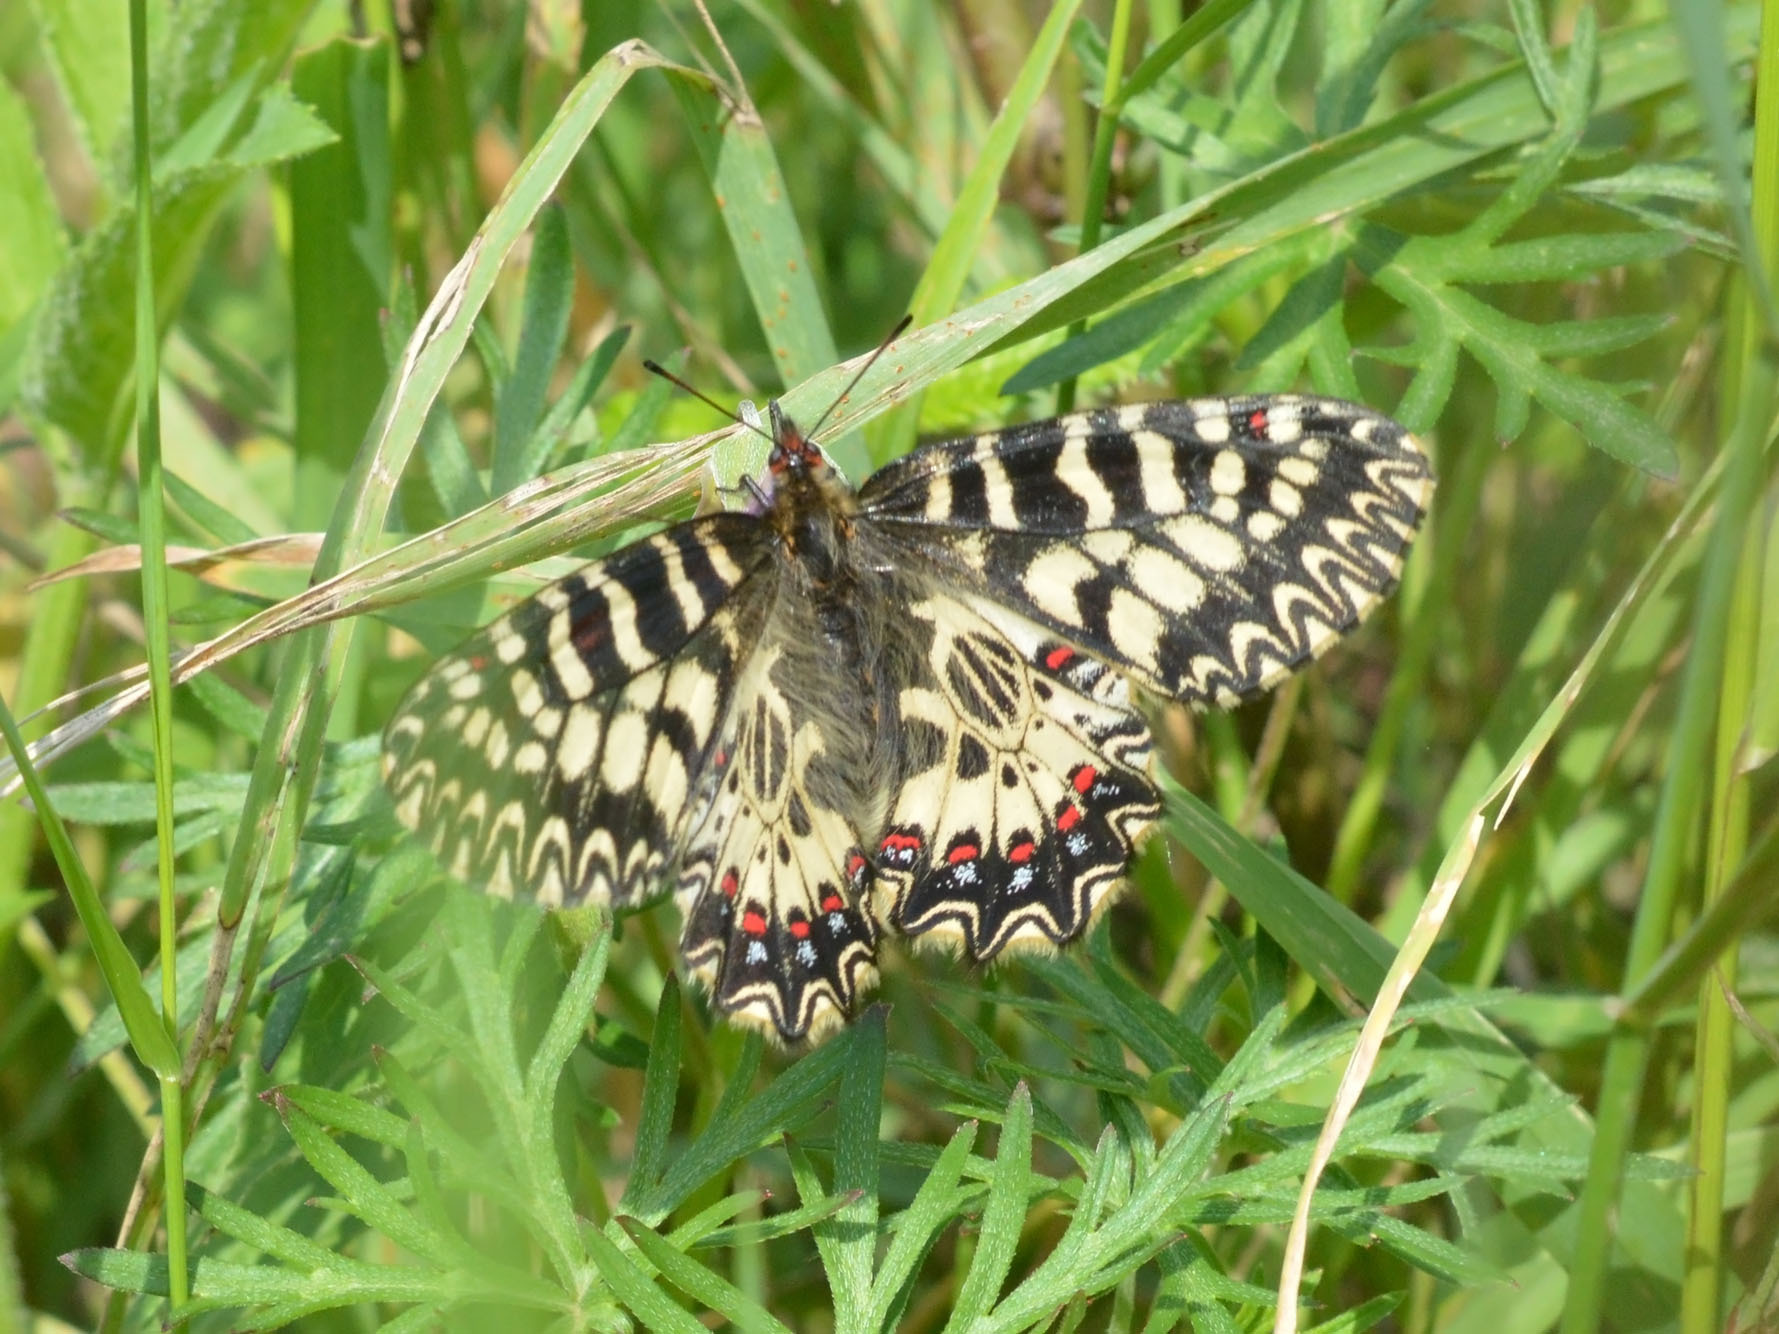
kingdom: Animalia
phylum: Arthropoda
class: Insecta
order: Lepidoptera
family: Papilionidae
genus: Zerynthia
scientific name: Zerynthia polyxena
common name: Southern festoon
